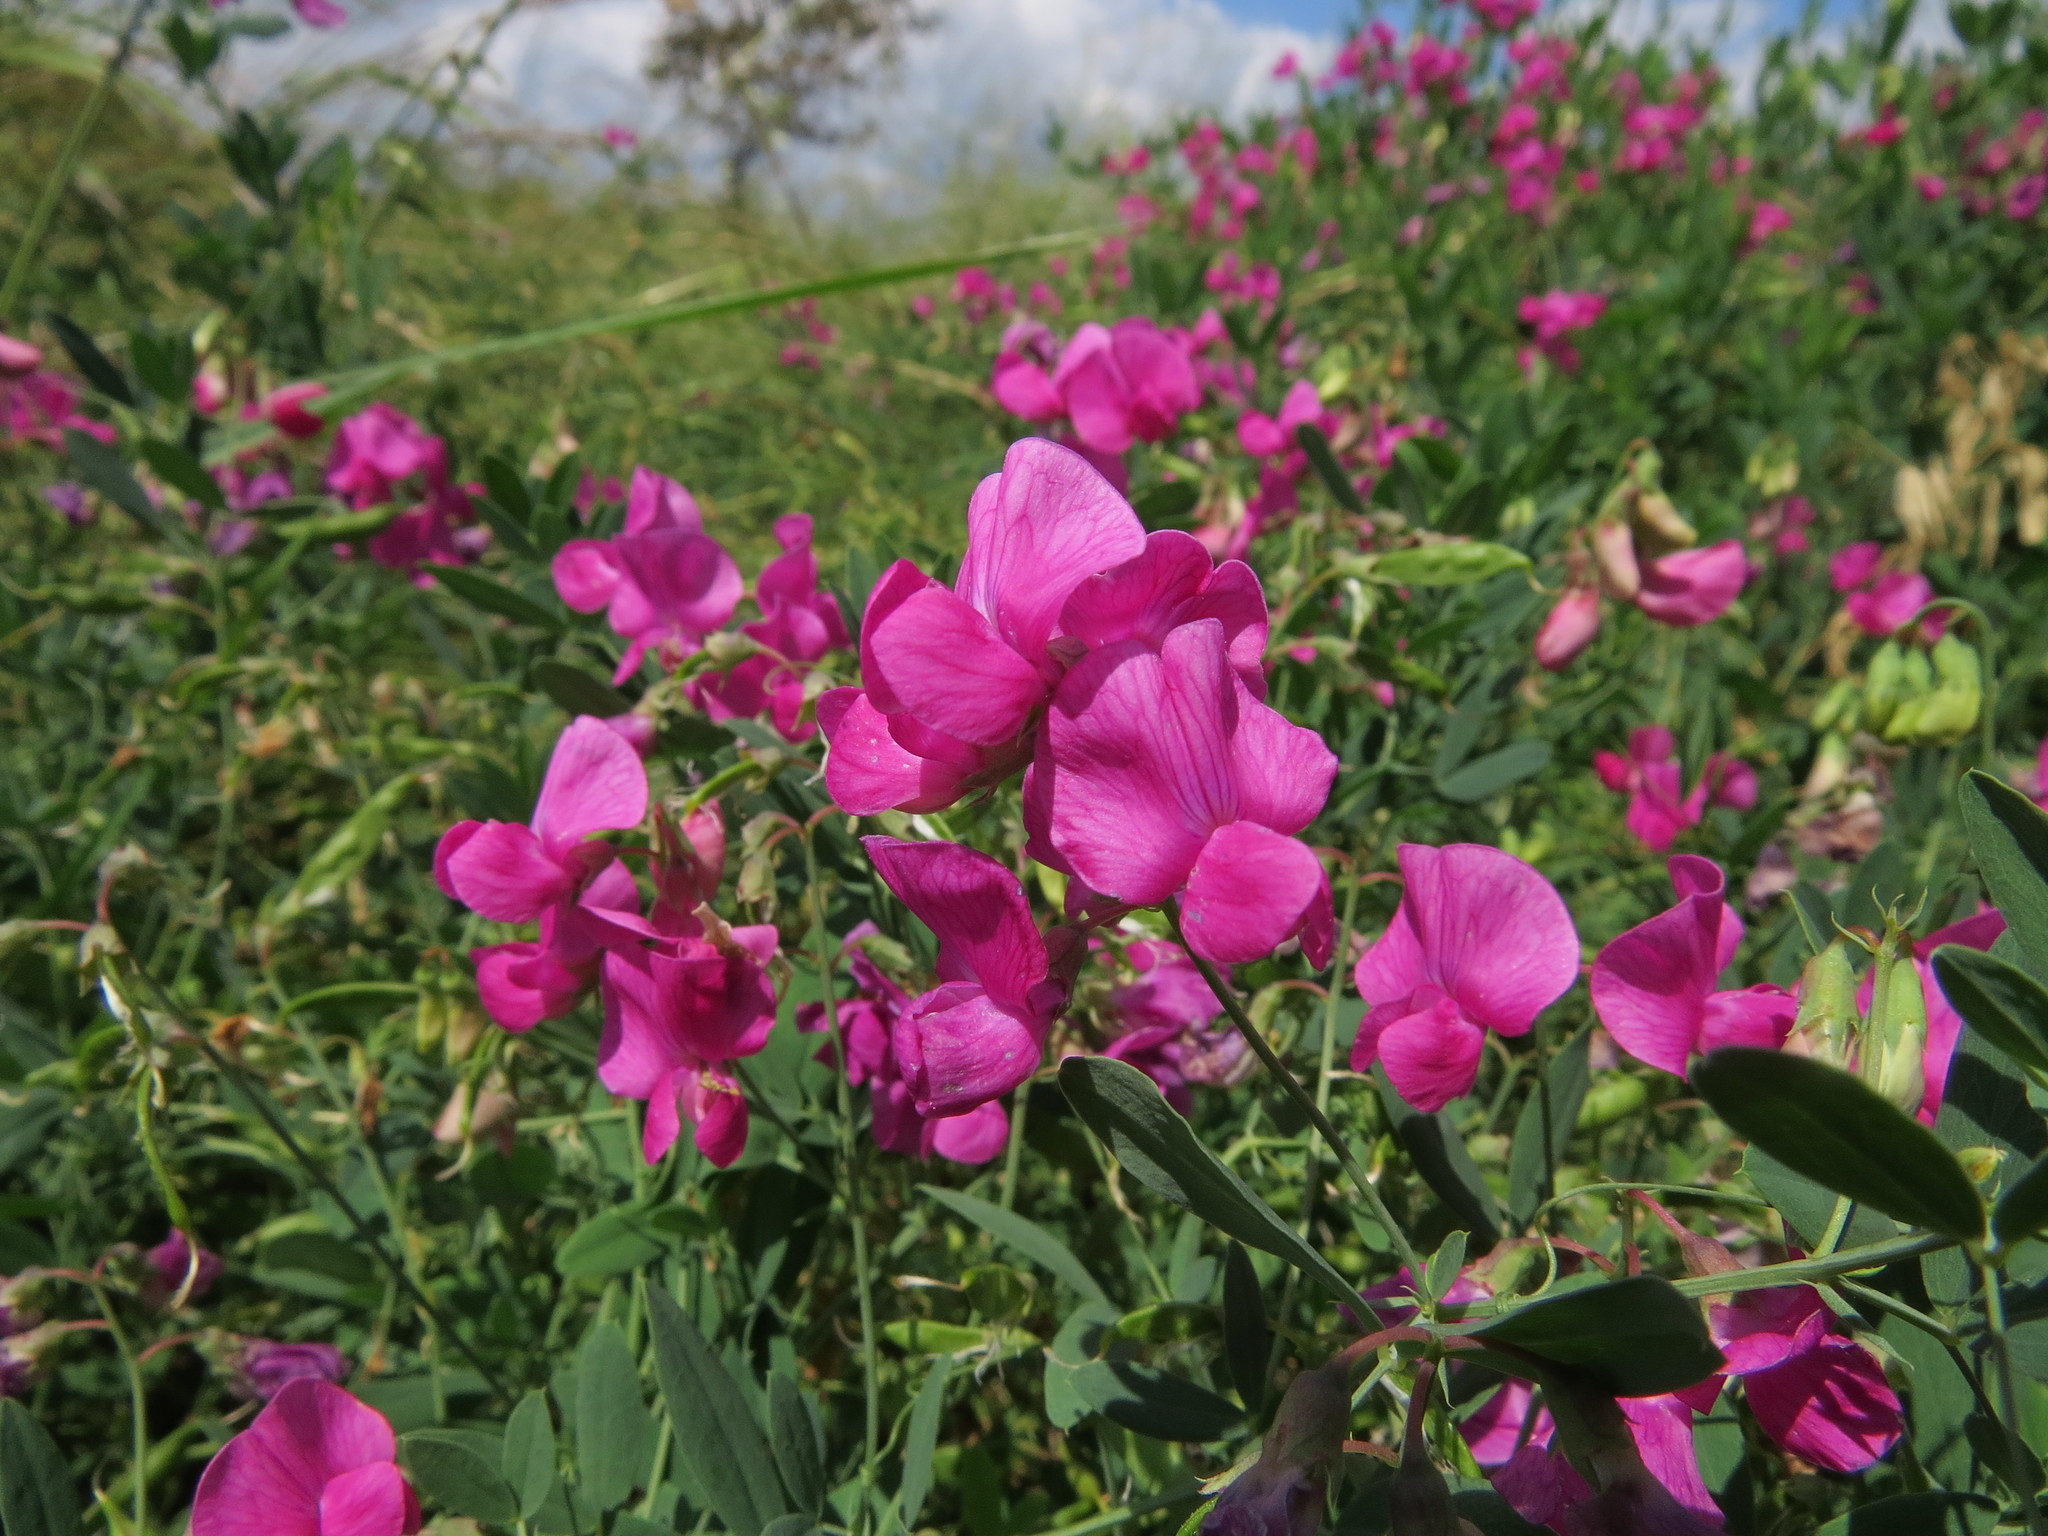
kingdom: Plantae
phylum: Tracheophyta
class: Magnoliopsida
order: Fabales
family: Fabaceae
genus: Lathyrus
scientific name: Lathyrus latifolius
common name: Perennial pea
